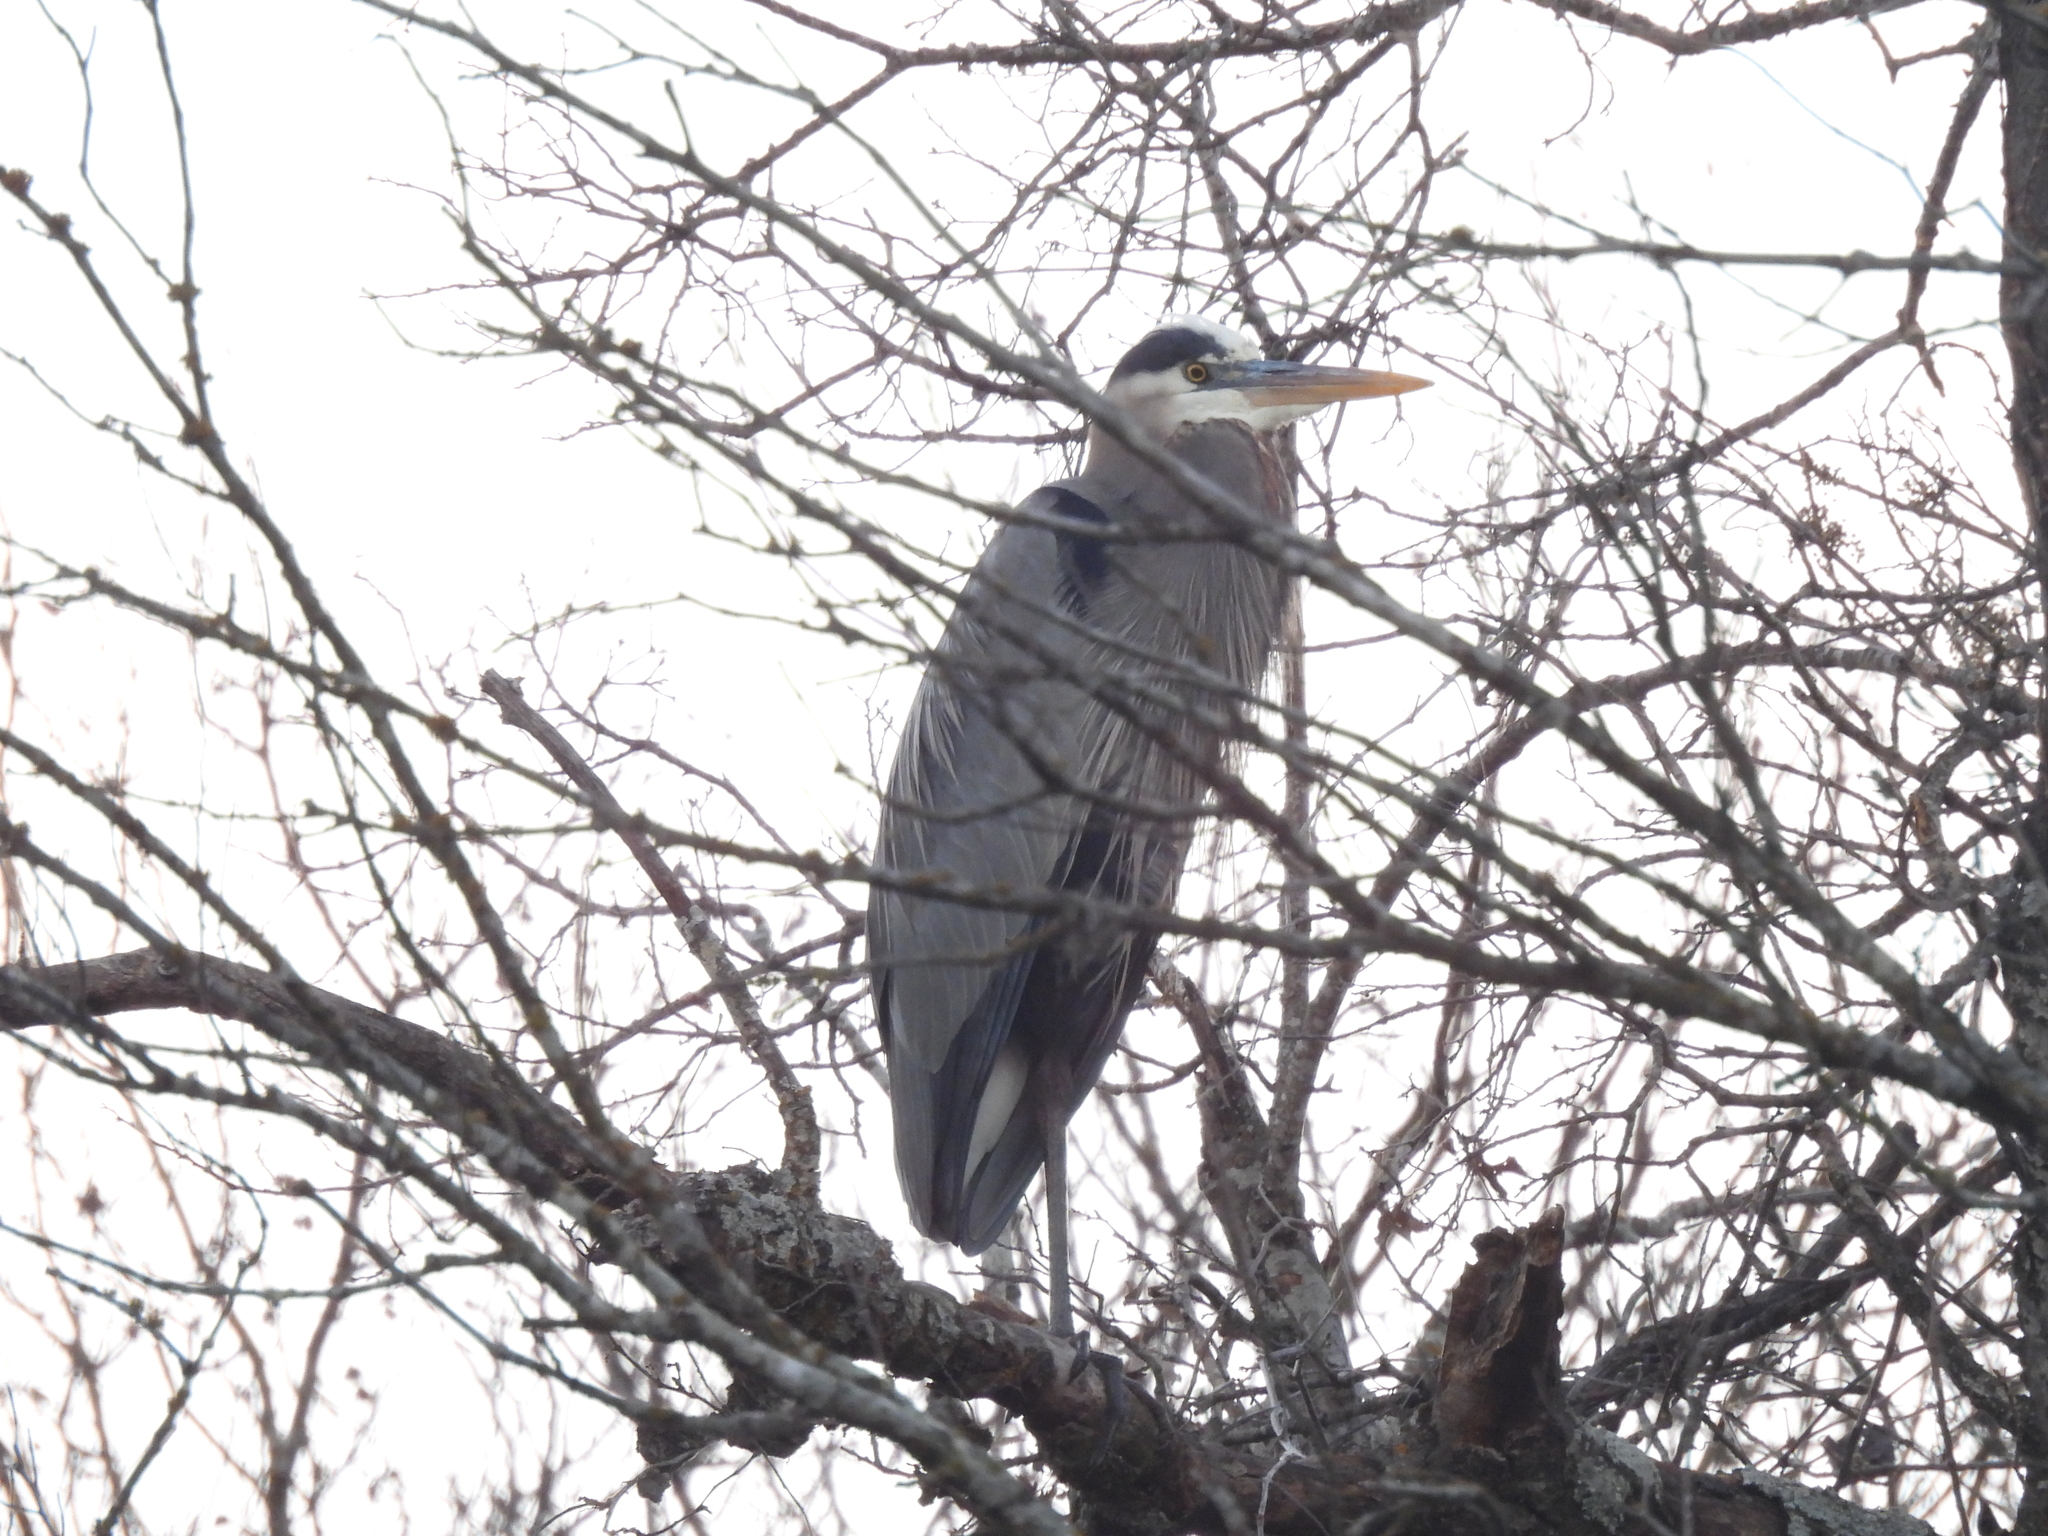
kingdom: Animalia
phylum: Chordata
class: Aves
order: Pelecaniformes
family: Ardeidae
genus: Ardea
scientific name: Ardea herodias
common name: Great blue heron
